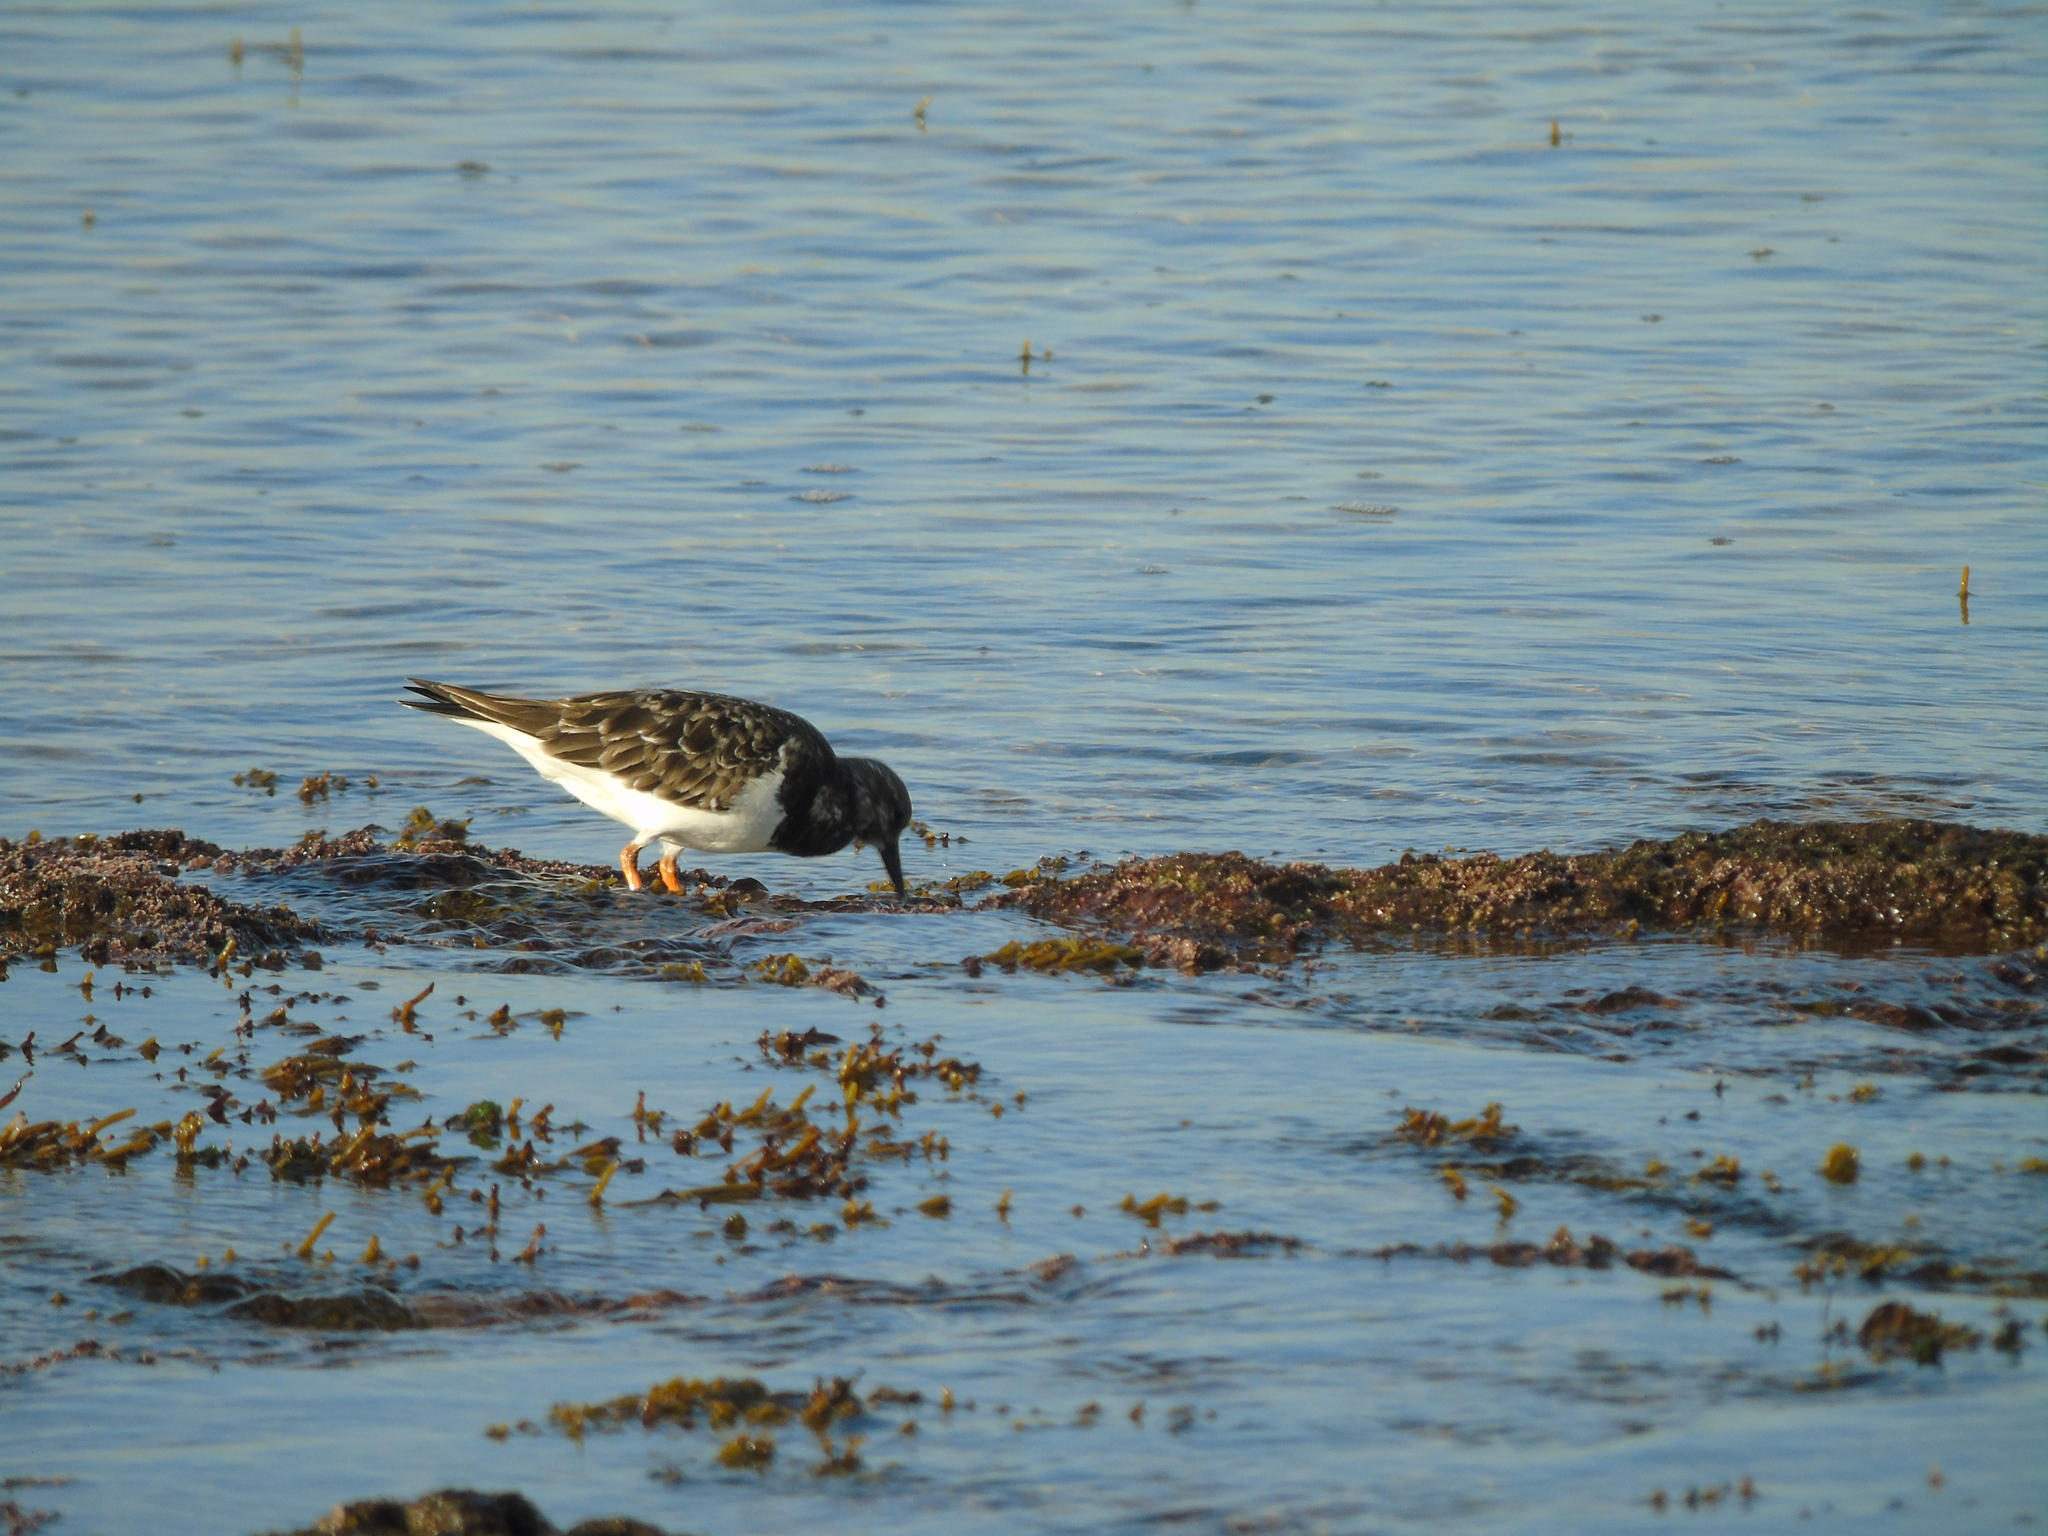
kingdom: Animalia
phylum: Chordata
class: Aves
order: Charadriiformes
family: Scolopacidae
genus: Arenaria
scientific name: Arenaria interpres
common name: Ruddy turnstone
